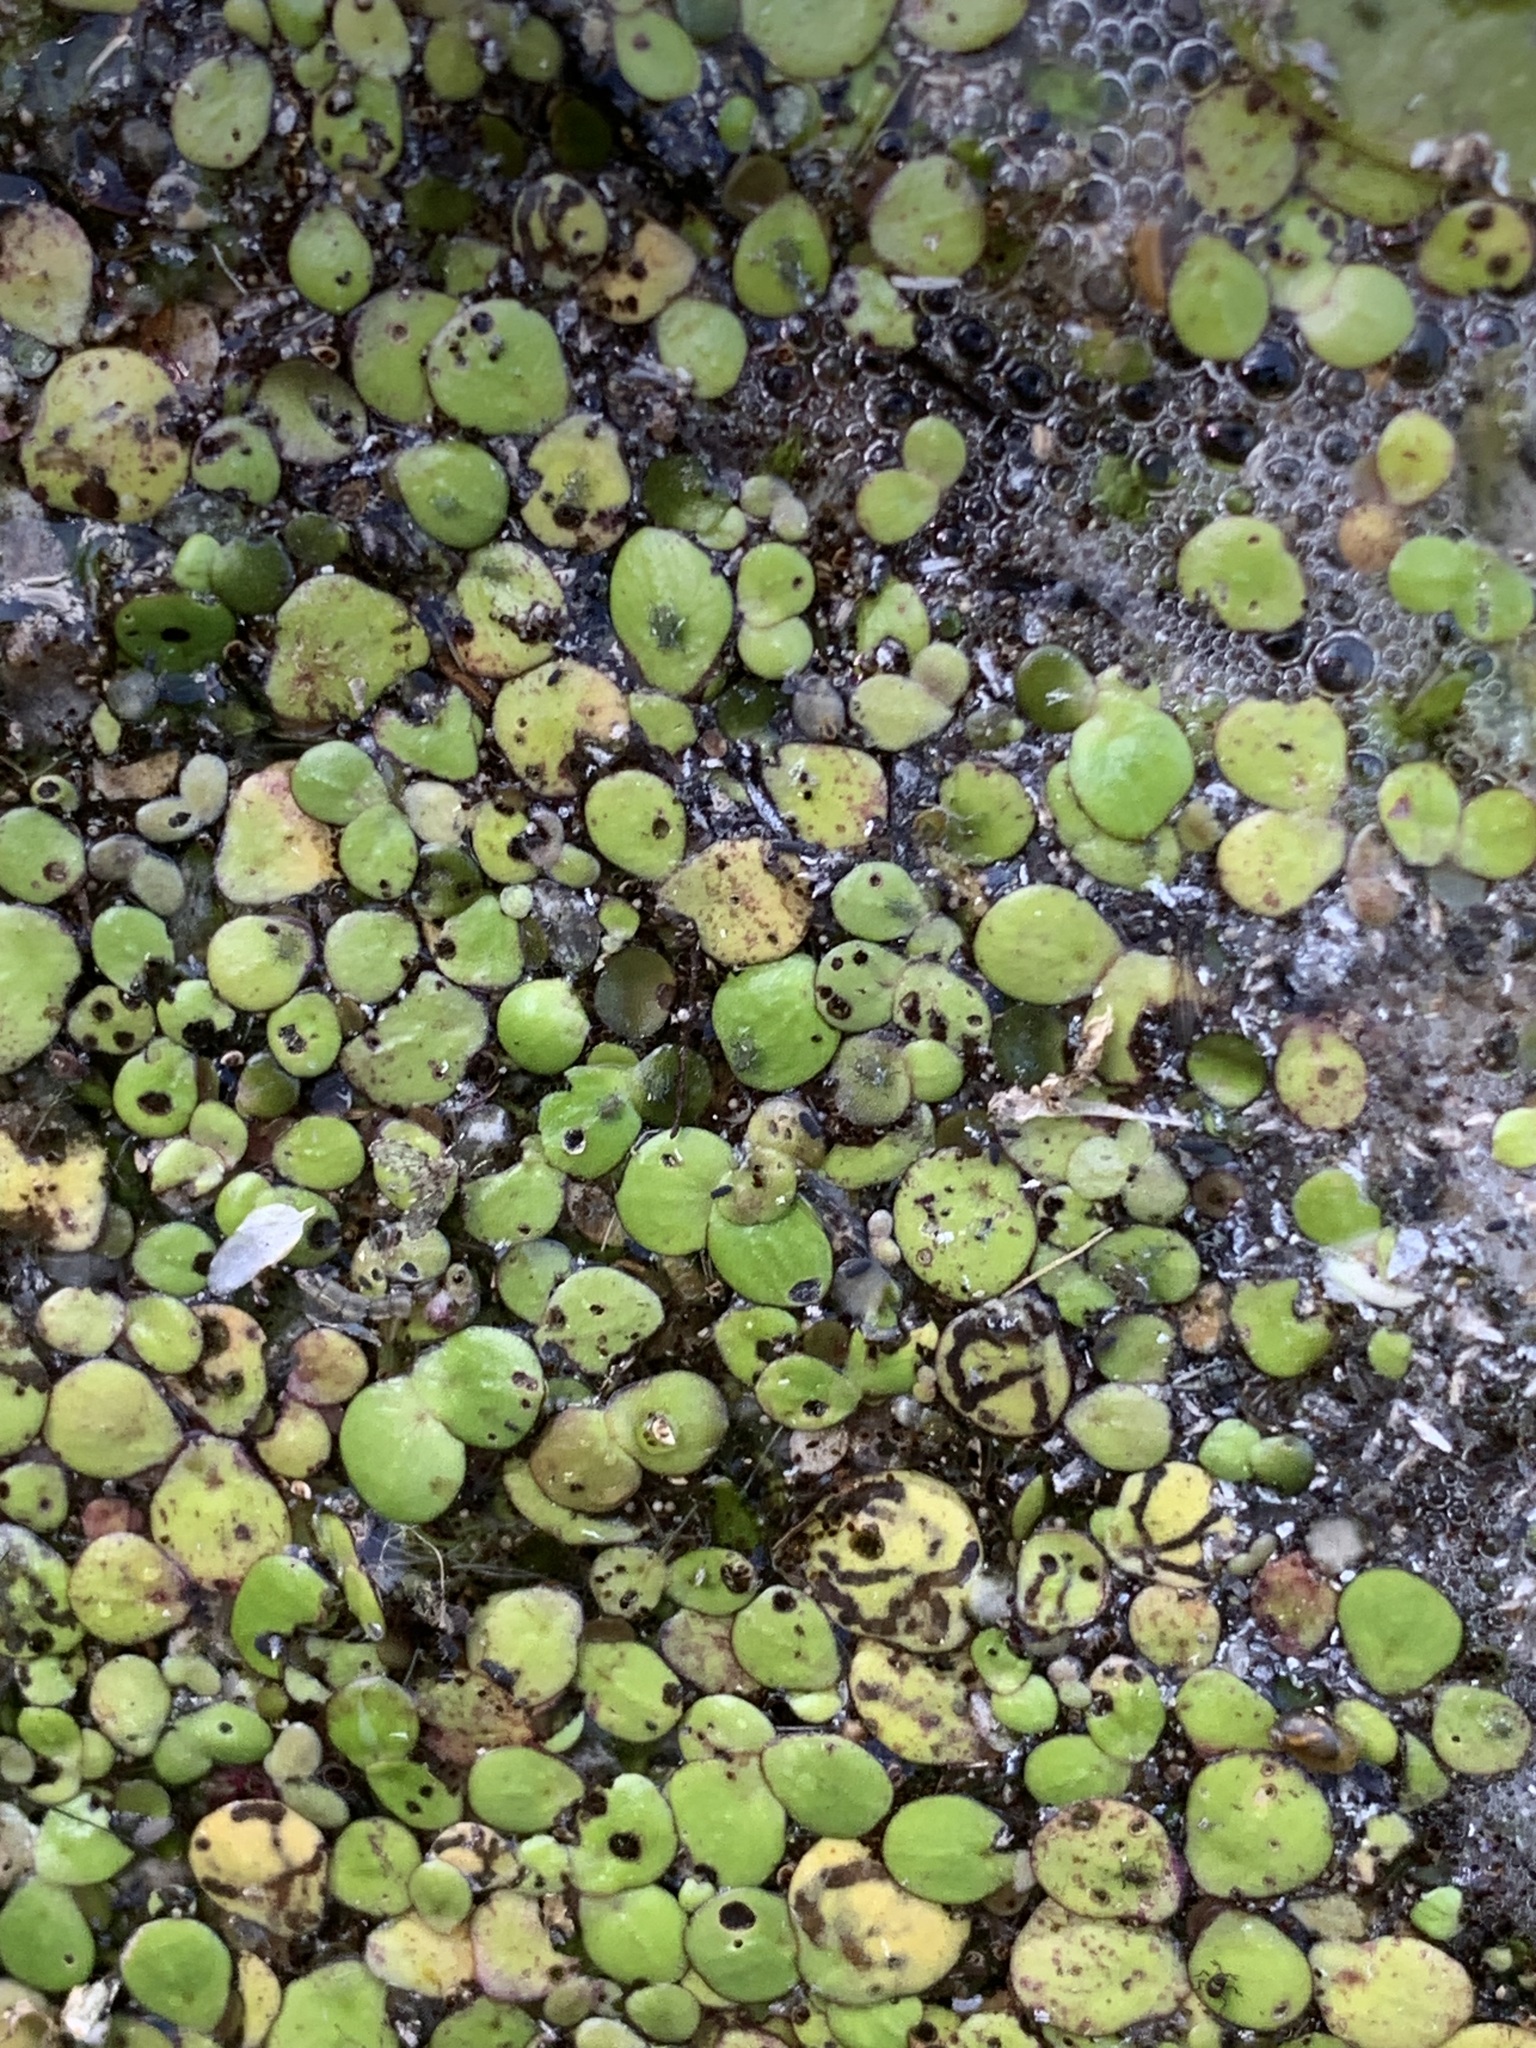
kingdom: Plantae
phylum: Tracheophyta
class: Liliopsida
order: Alismatales
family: Araceae
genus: Spirodela
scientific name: Spirodela polyrhiza
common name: Great duckweed
